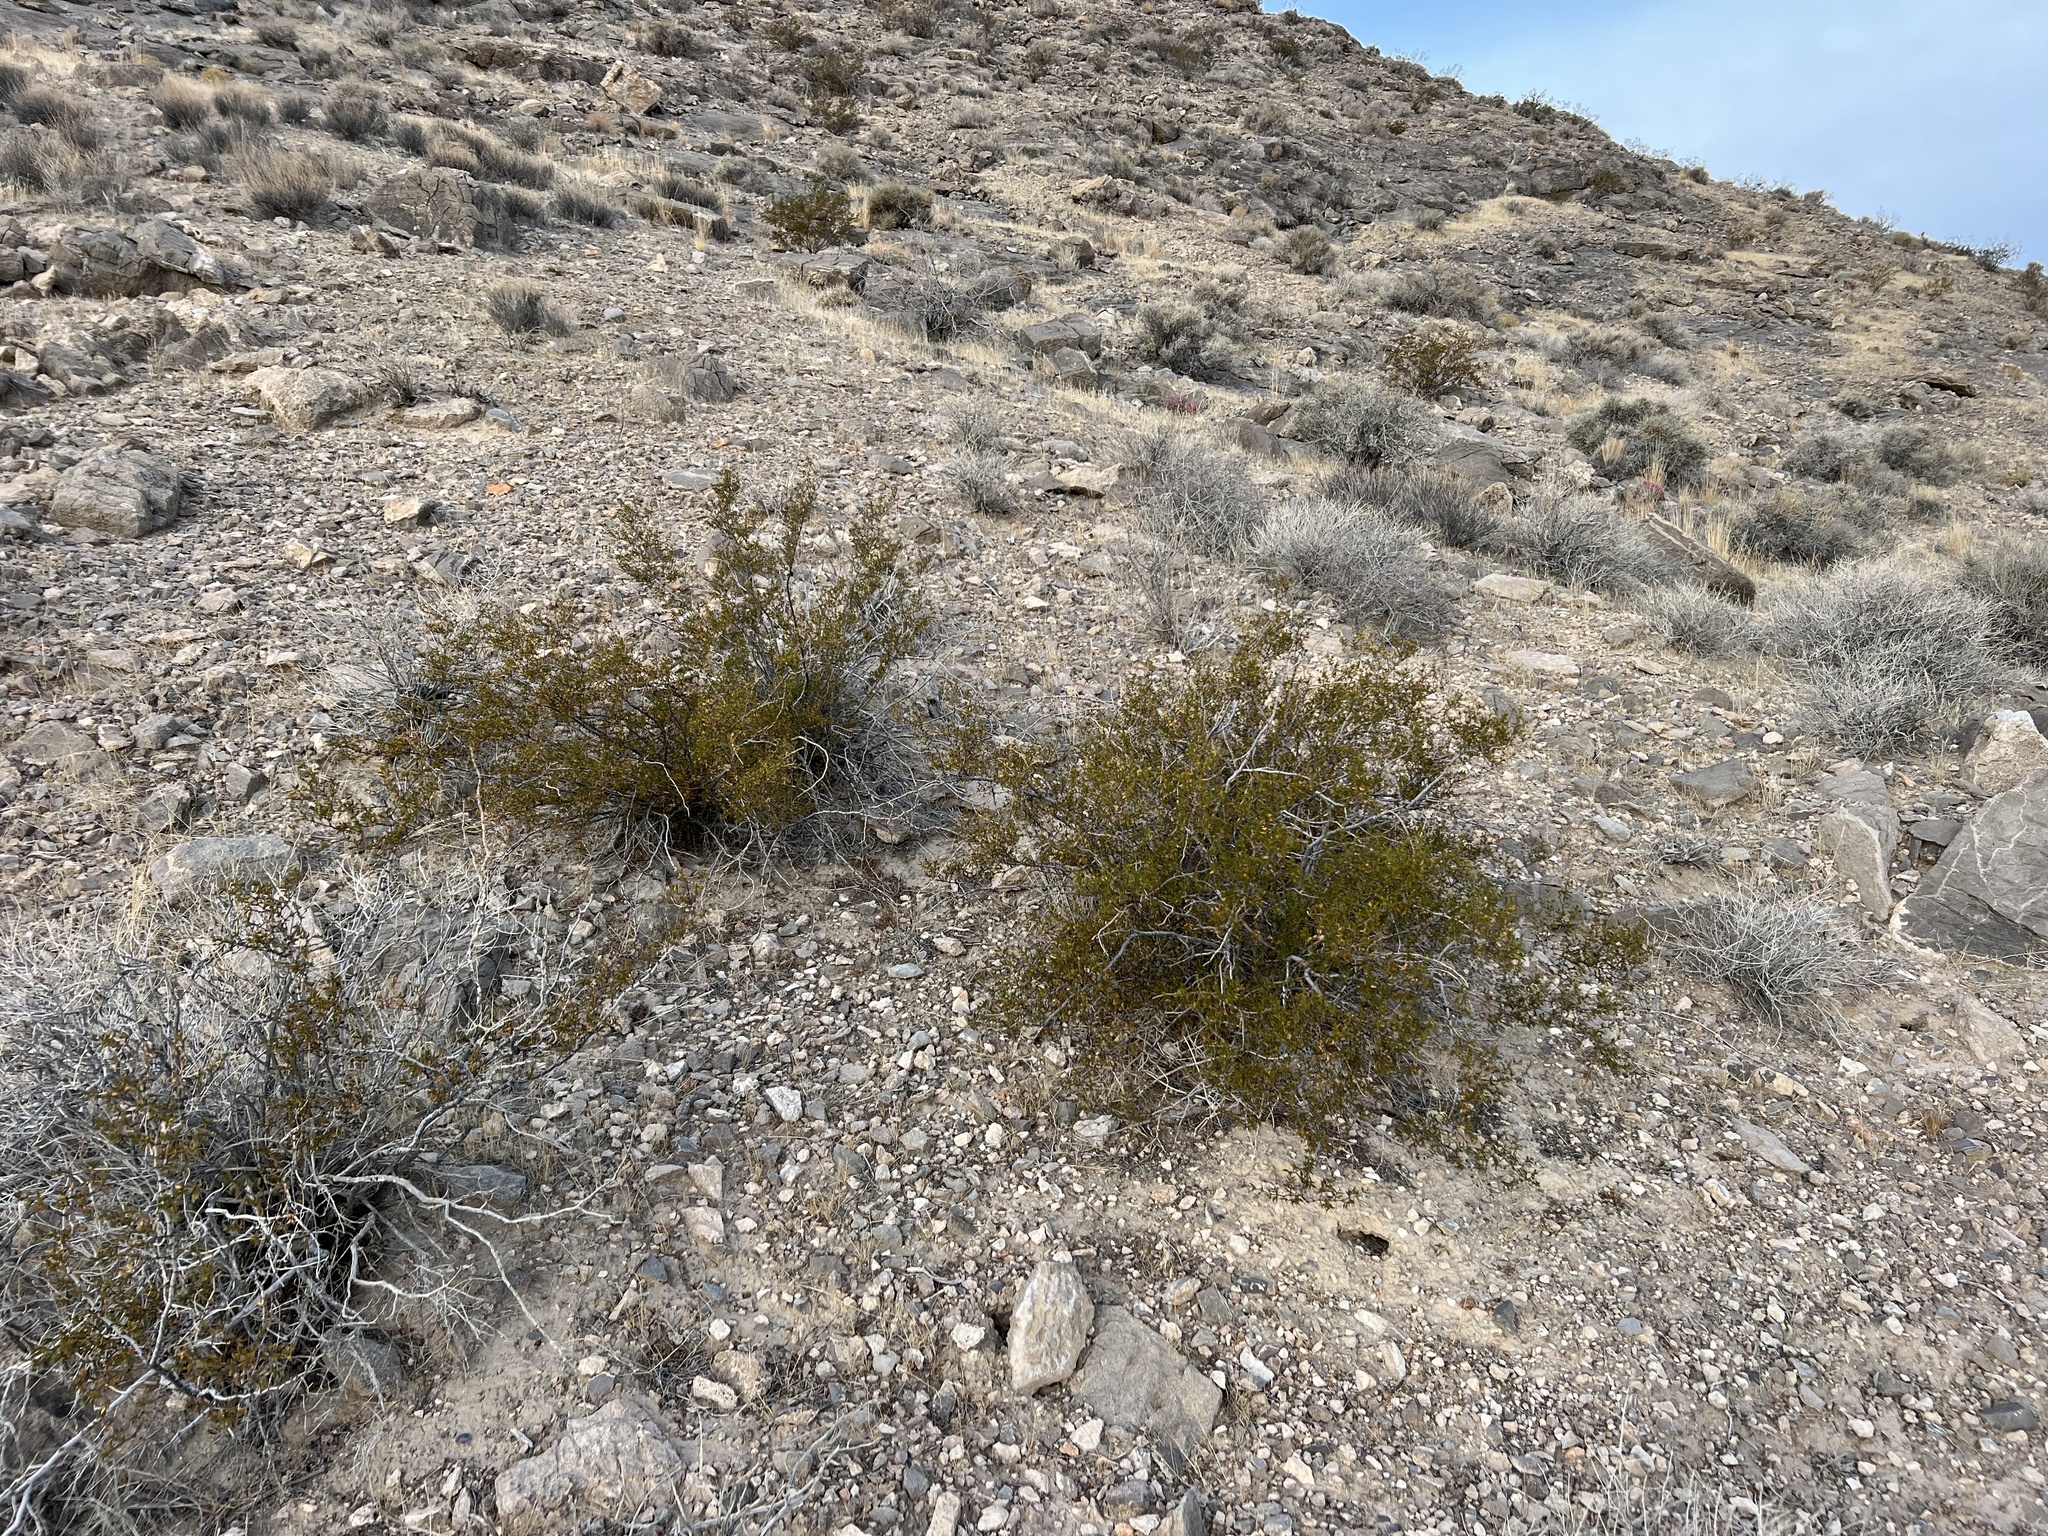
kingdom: Plantae
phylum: Tracheophyta
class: Magnoliopsida
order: Zygophyllales
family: Zygophyllaceae
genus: Larrea
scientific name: Larrea tridentata
